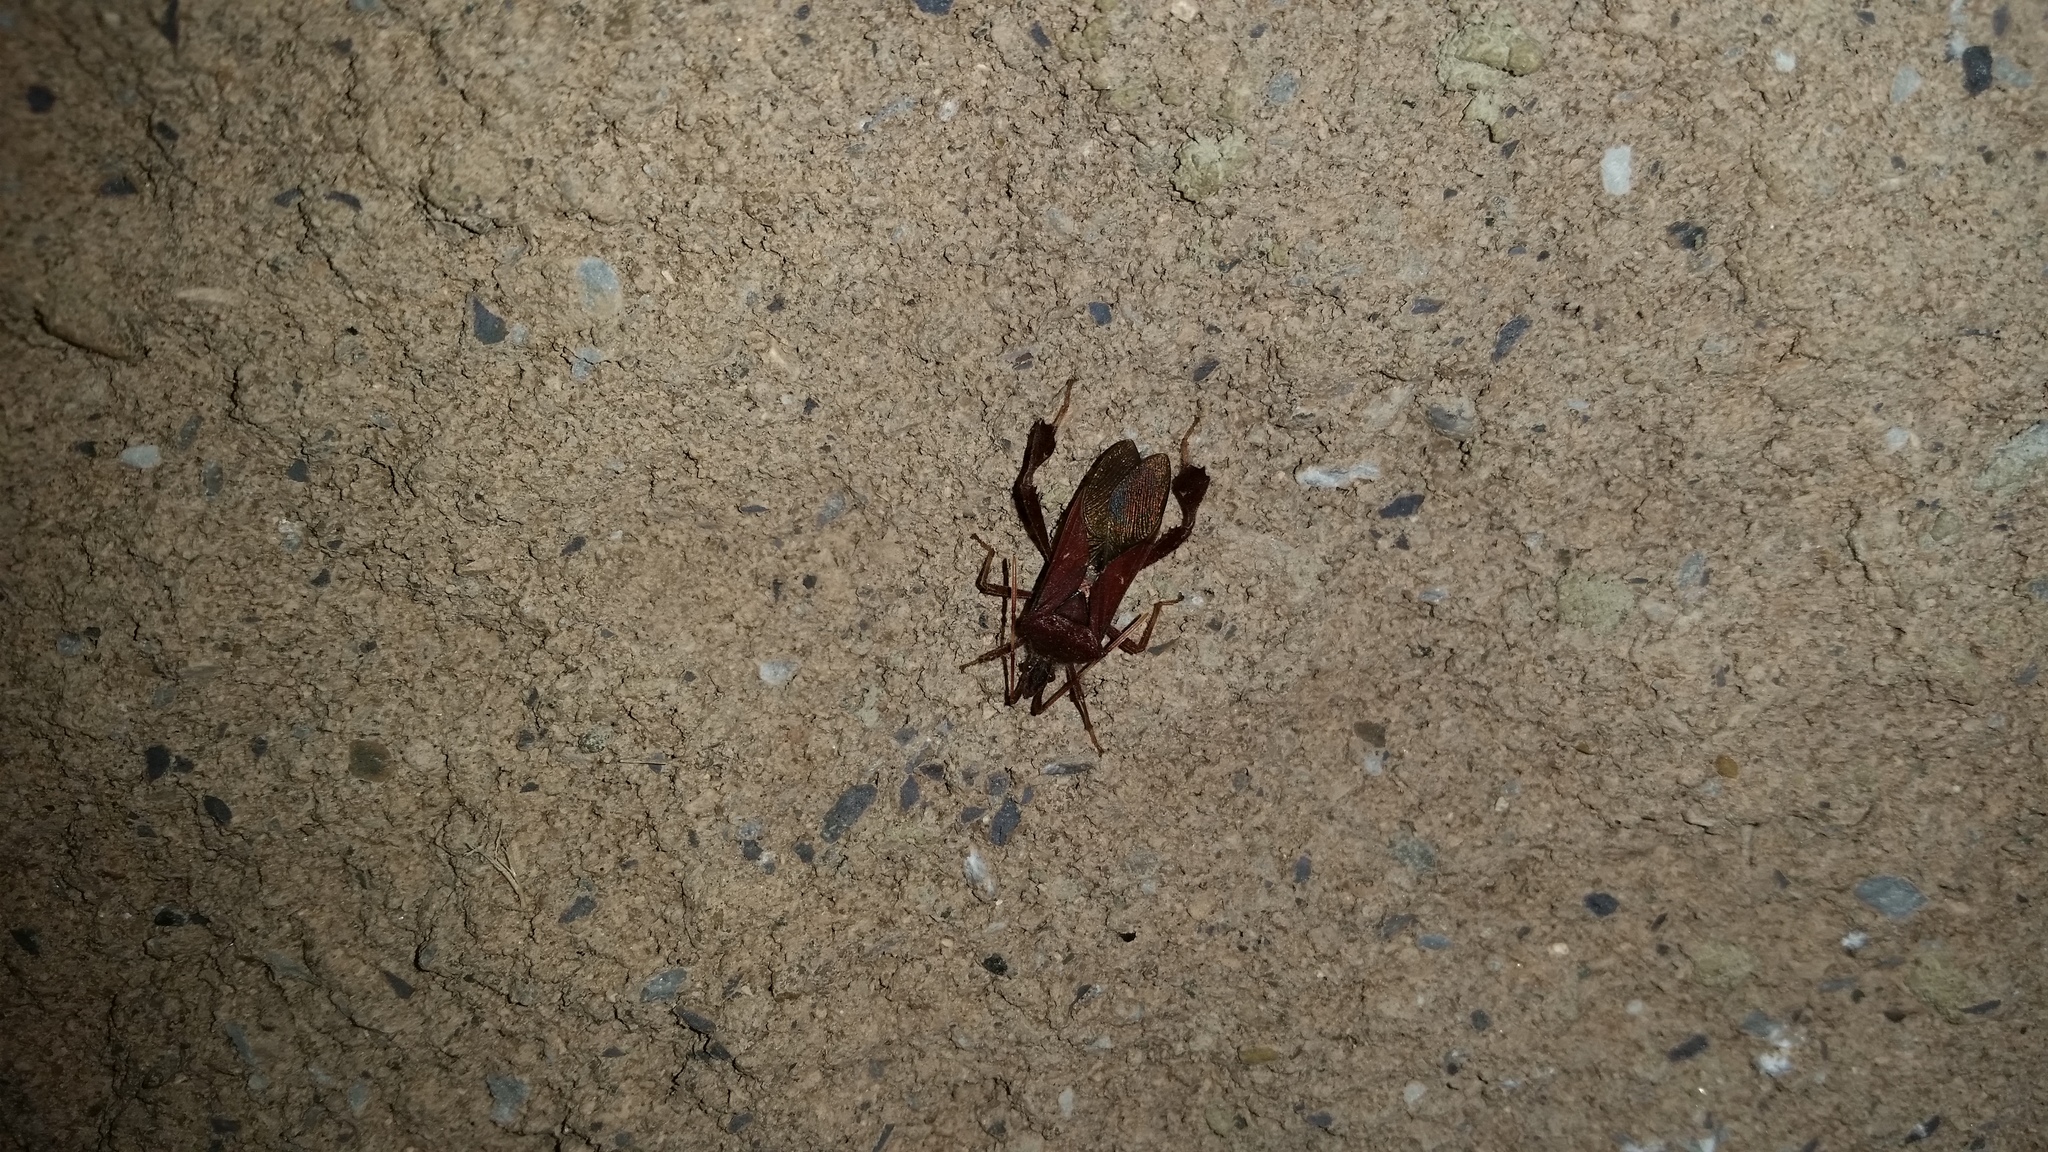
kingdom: Animalia
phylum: Arthropoda
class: Insecta
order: Hemiptera
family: Coreidae
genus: Leptoglossus
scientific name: Leptoglossus oppositus
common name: Northern leaf-footed bug
